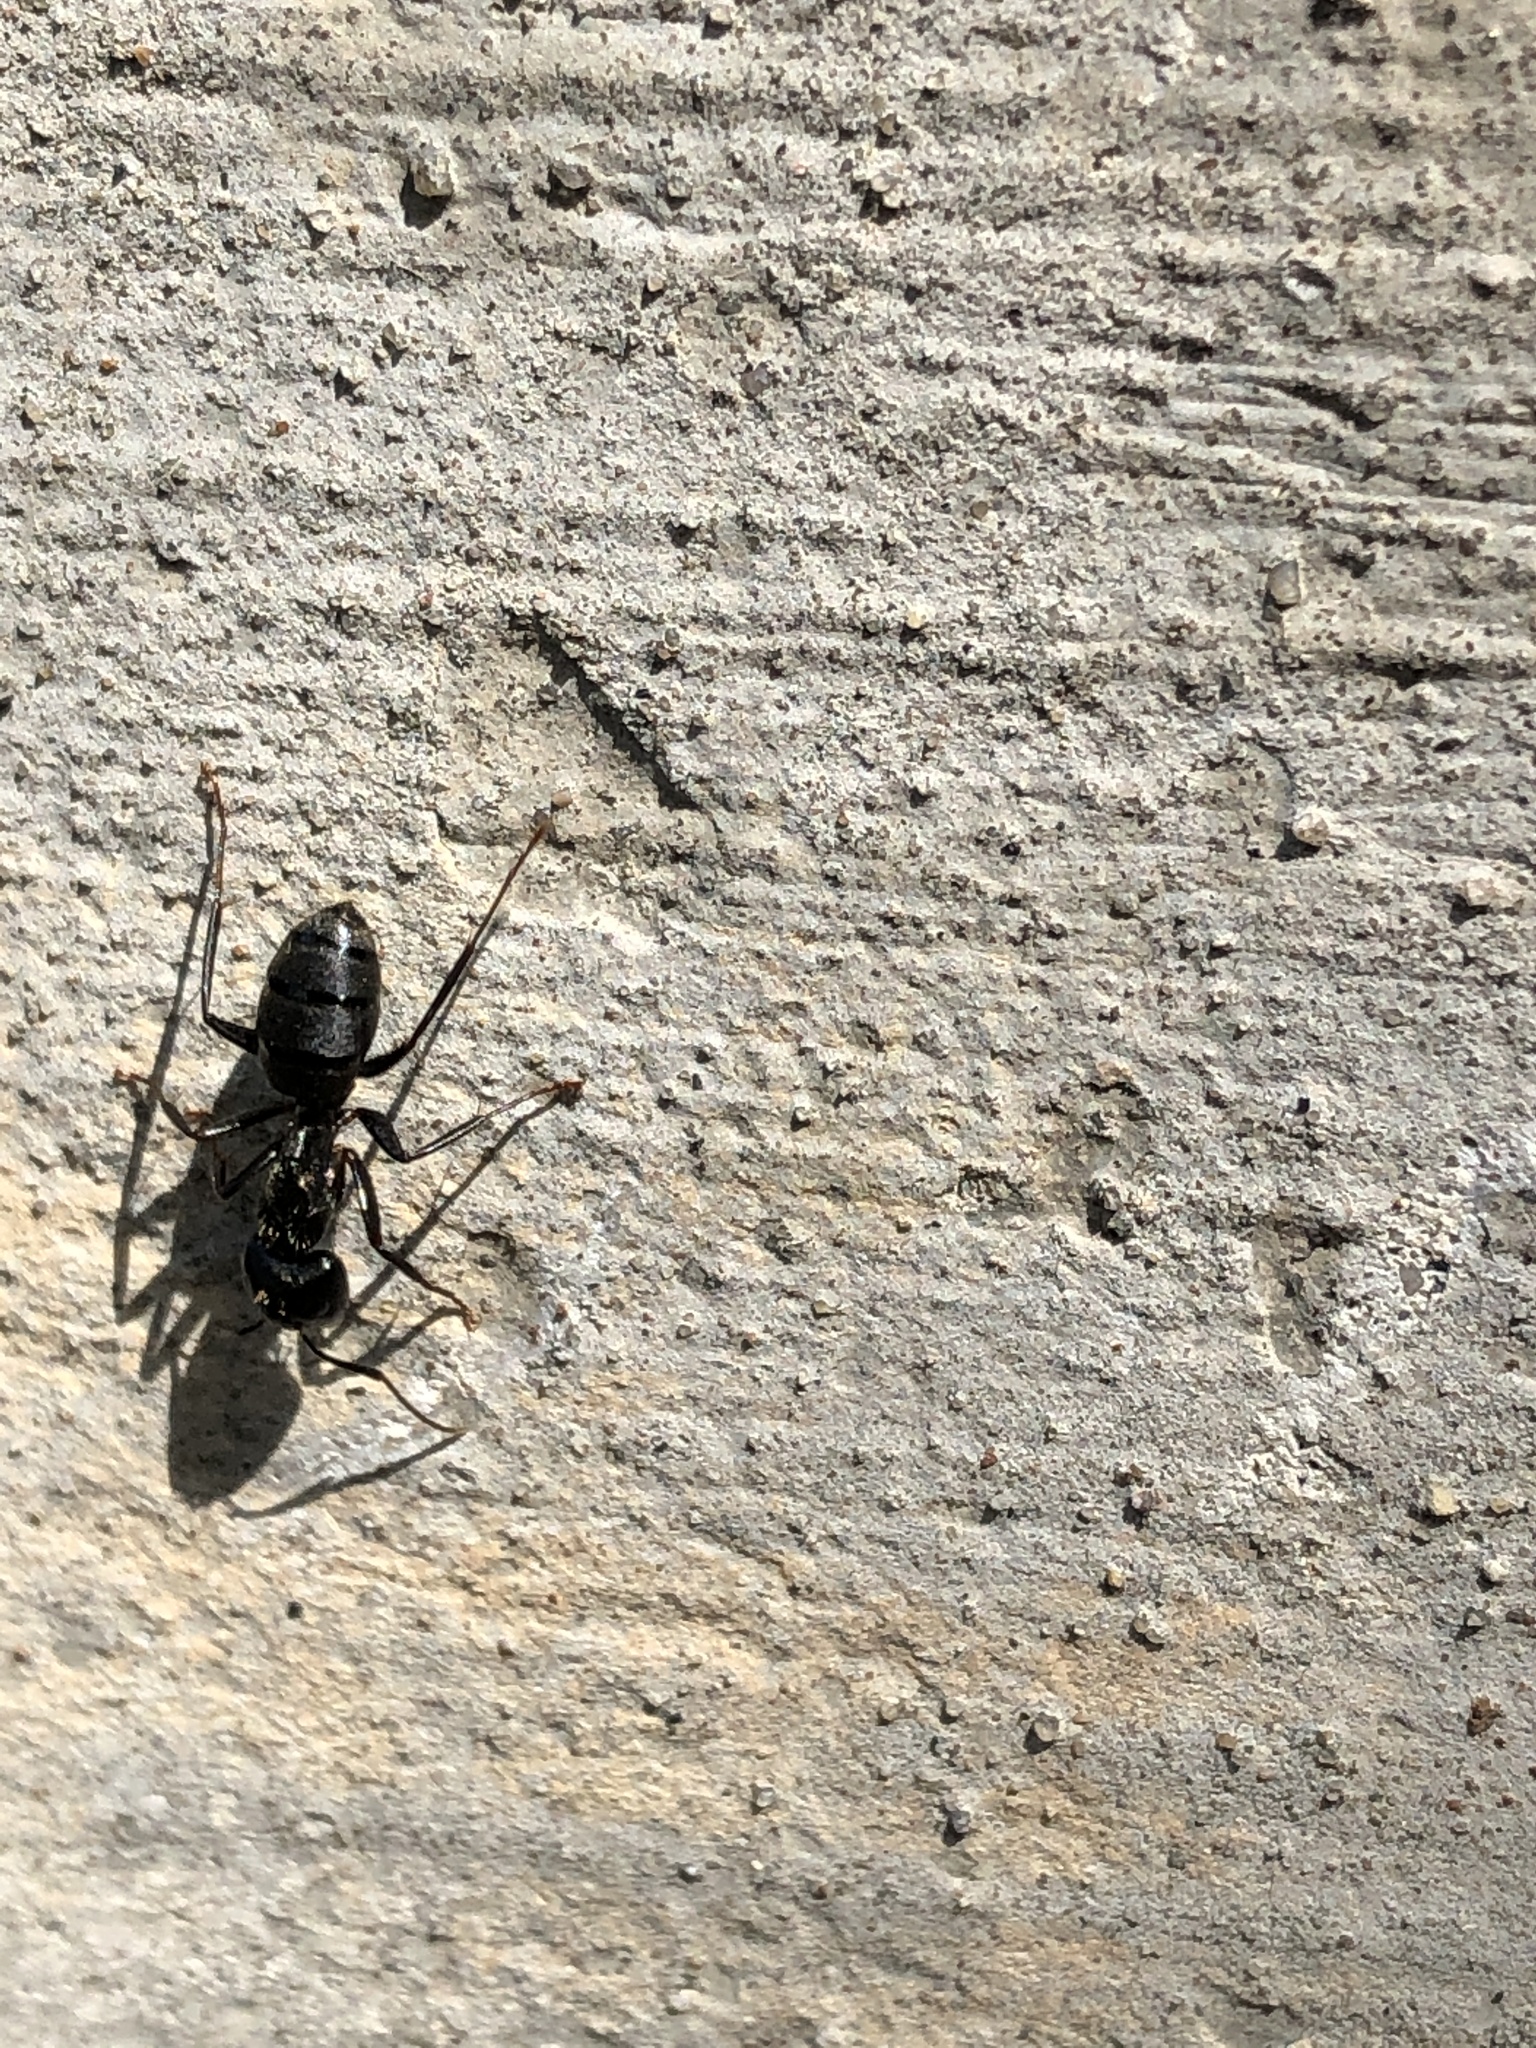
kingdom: Animalia
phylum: Arthropoda
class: Insecta
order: Hymenoptera
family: Formicidae
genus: Camponotus
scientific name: Camponotus pennsylvanicus
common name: Black carpenter ant
